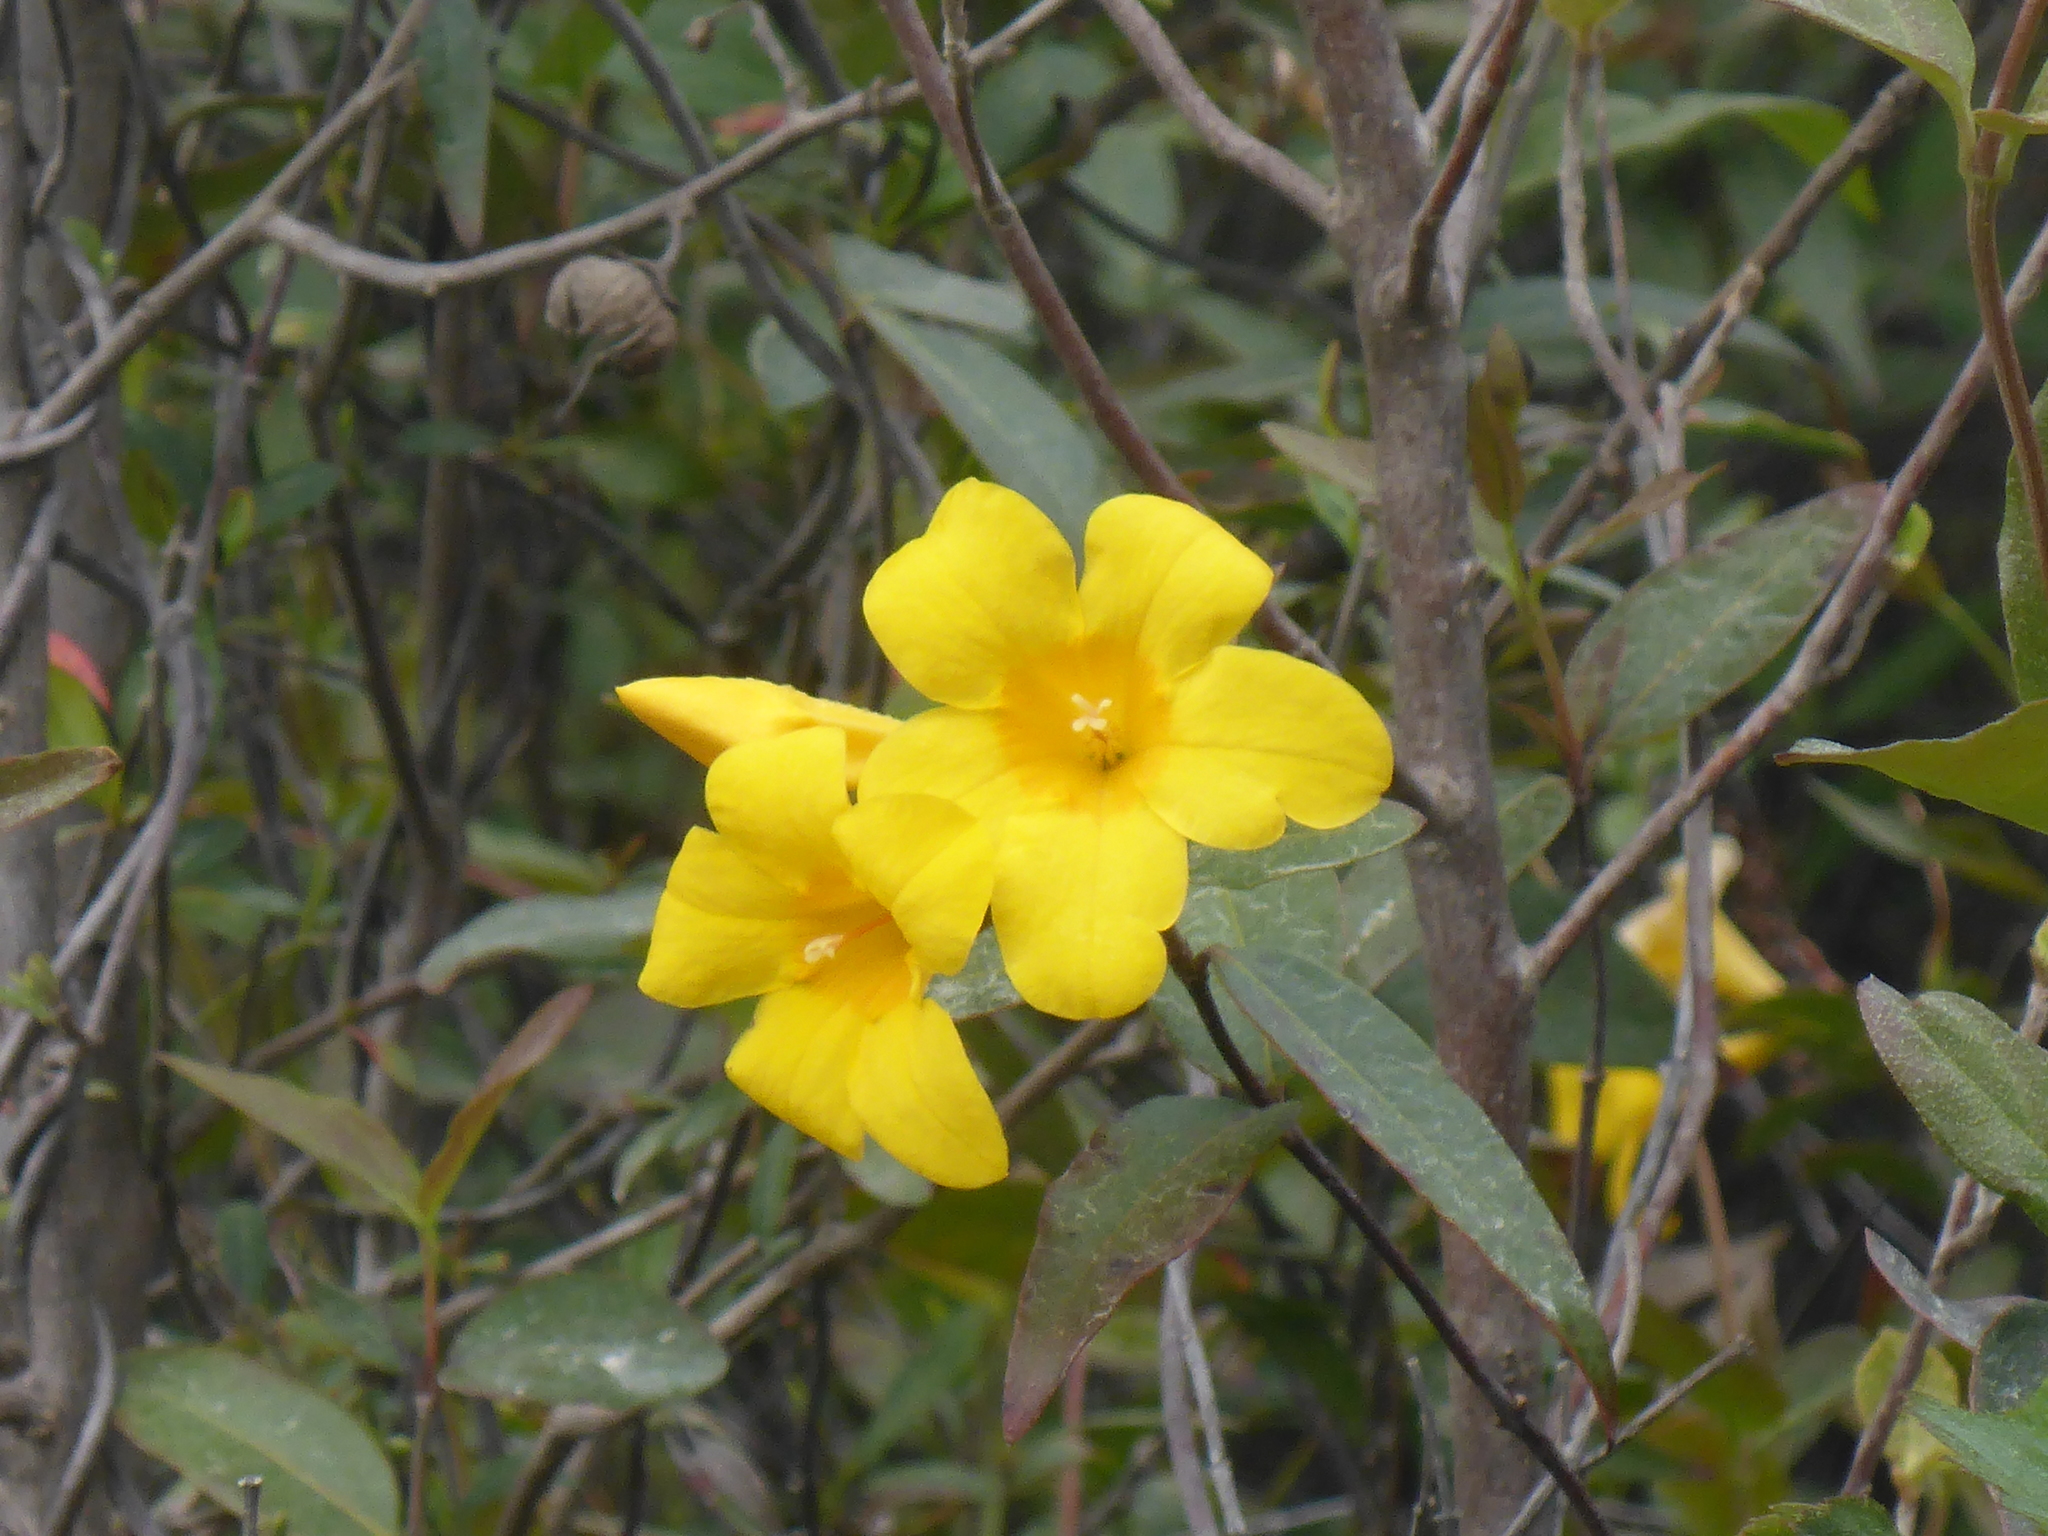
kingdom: Plantae
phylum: Tracheophyta
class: Magnoliopsida
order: Gentianales
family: Gelsemiaceae
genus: Gelsemium
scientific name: Gelsemium sempervirens
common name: Carolina-jasmine
